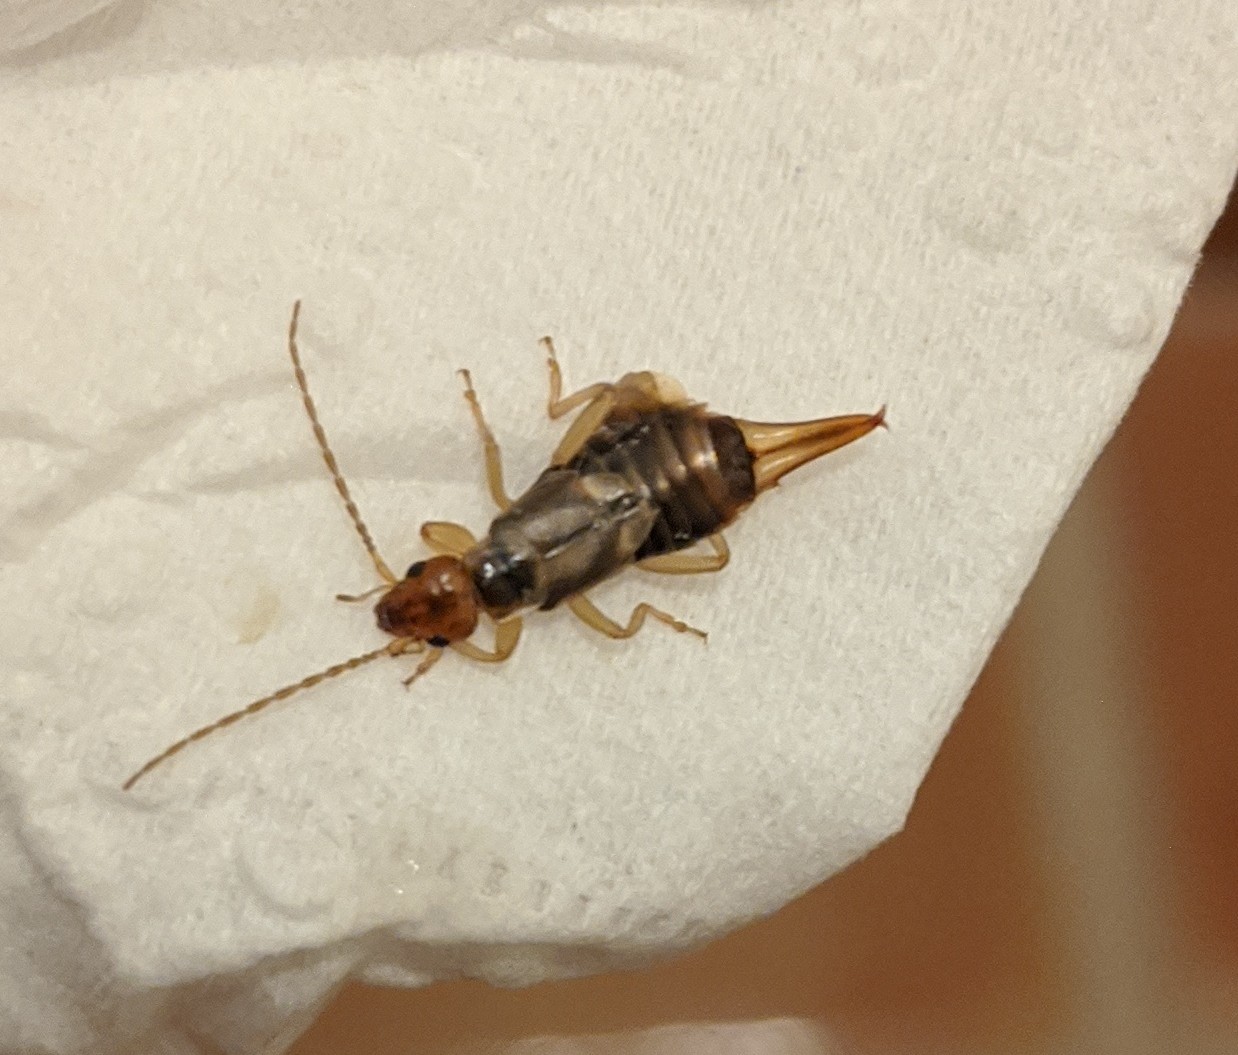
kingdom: Animalia
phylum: Arthropoda
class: Insecta
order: Dermaptera
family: Forficulidae
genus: Forficula
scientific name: Forficula
